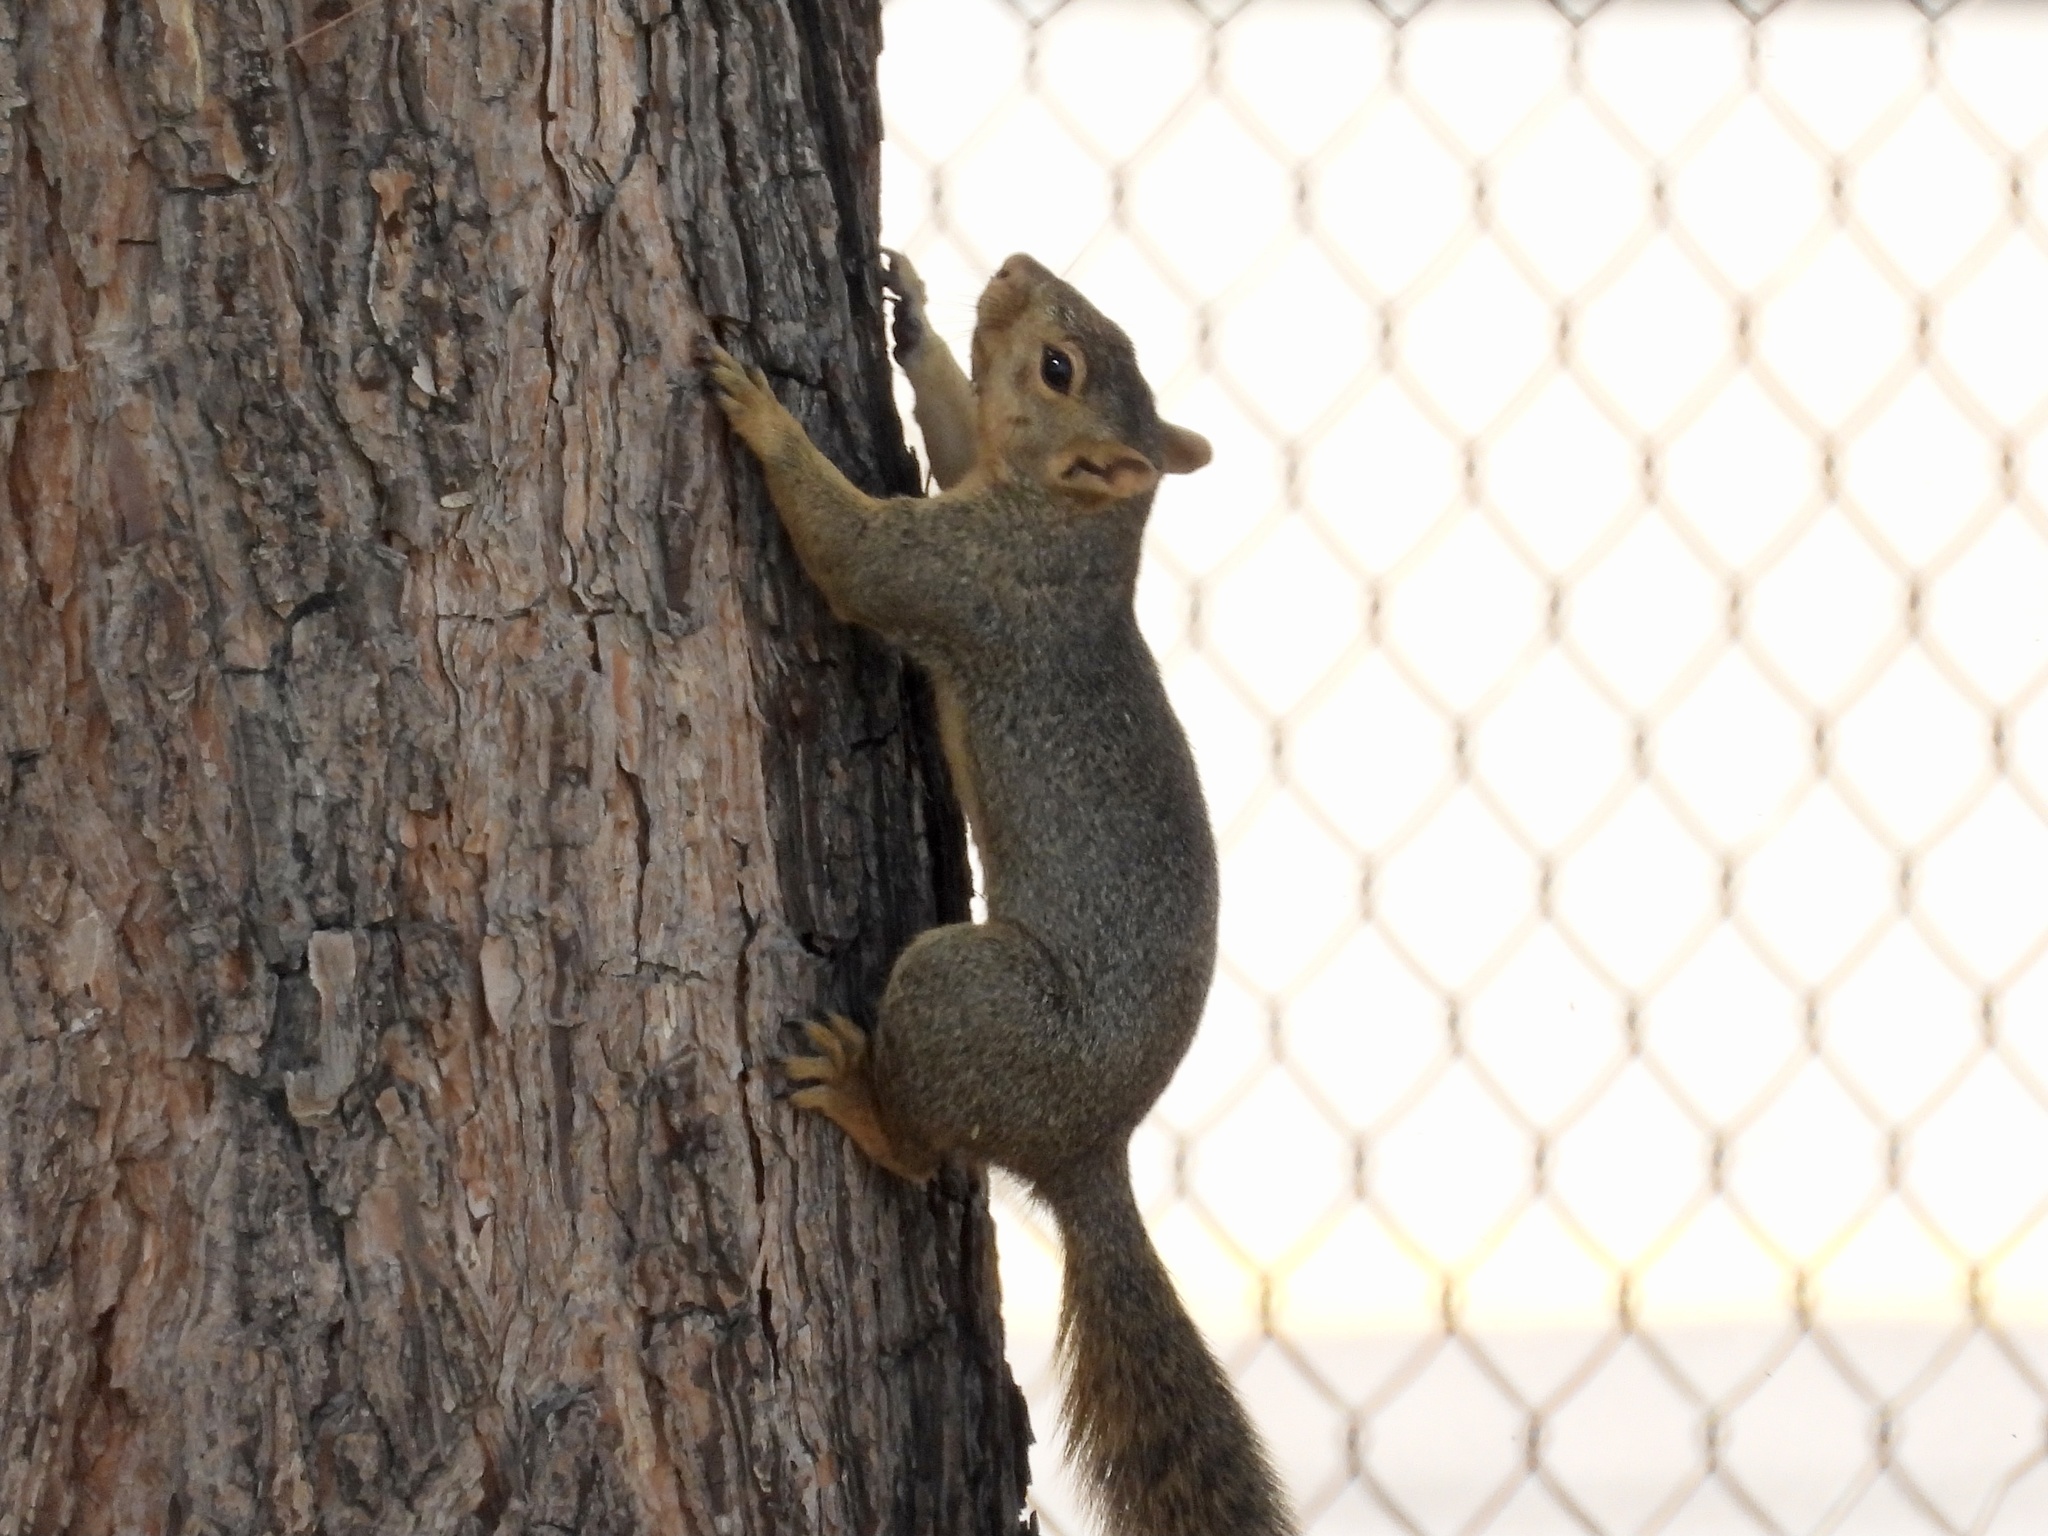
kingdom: Animalia
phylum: Chordata
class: Mammalia
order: Rodentia
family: Sciuridae
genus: Sciurus
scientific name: Sciurus niger
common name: Fox squirrel
